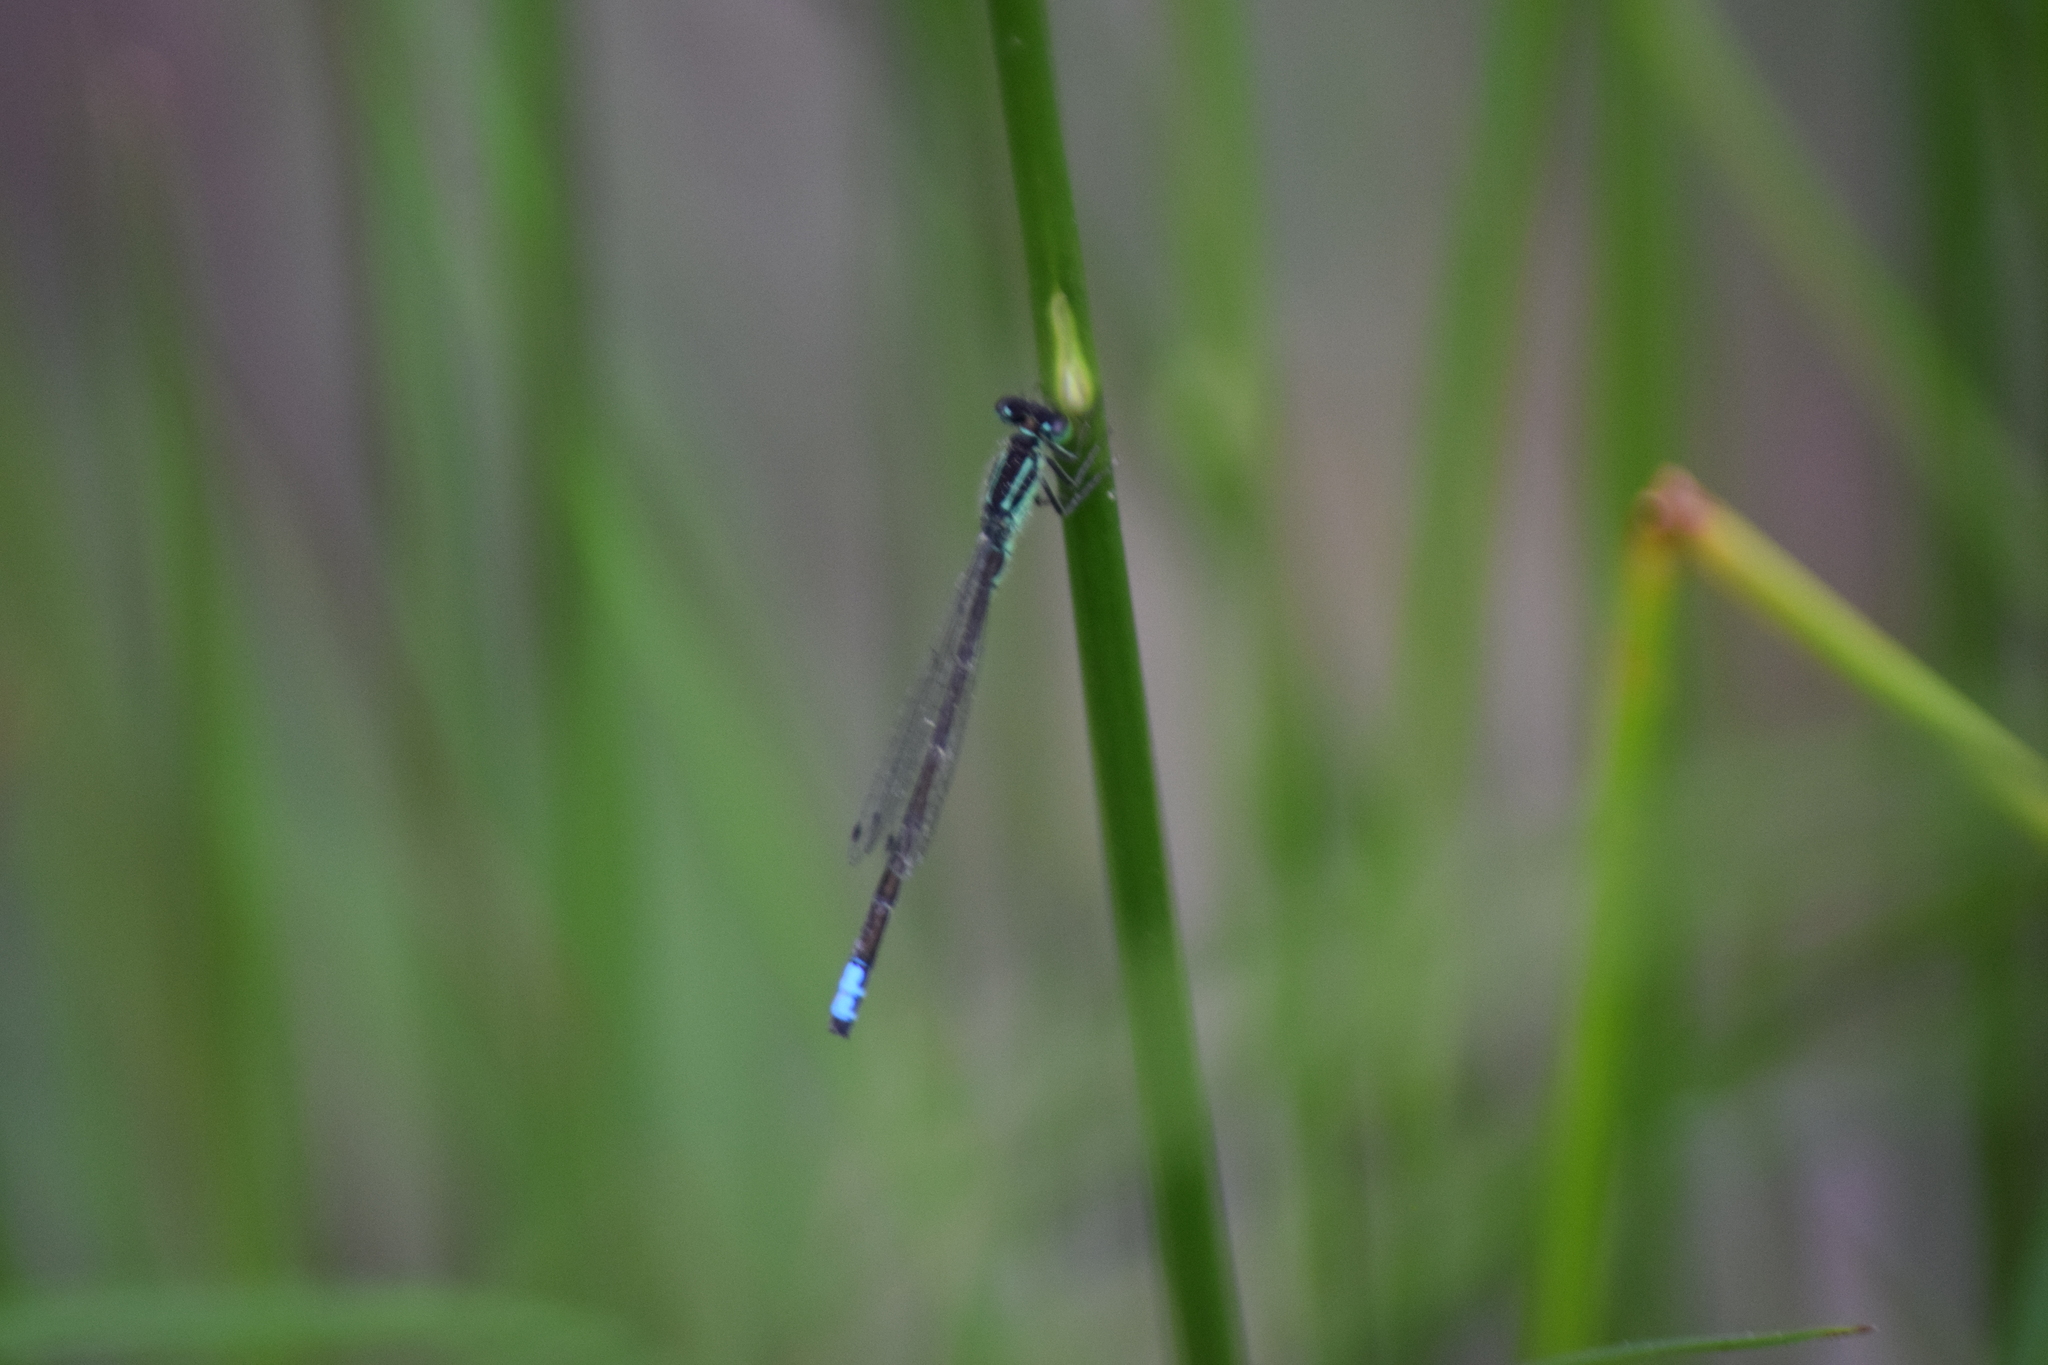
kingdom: Animalia
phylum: Arthropoda
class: Insecta
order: Odonata
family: Coenagrionidae
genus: Ischnura
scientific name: Ischnura verticalis
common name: Eastern forktail
